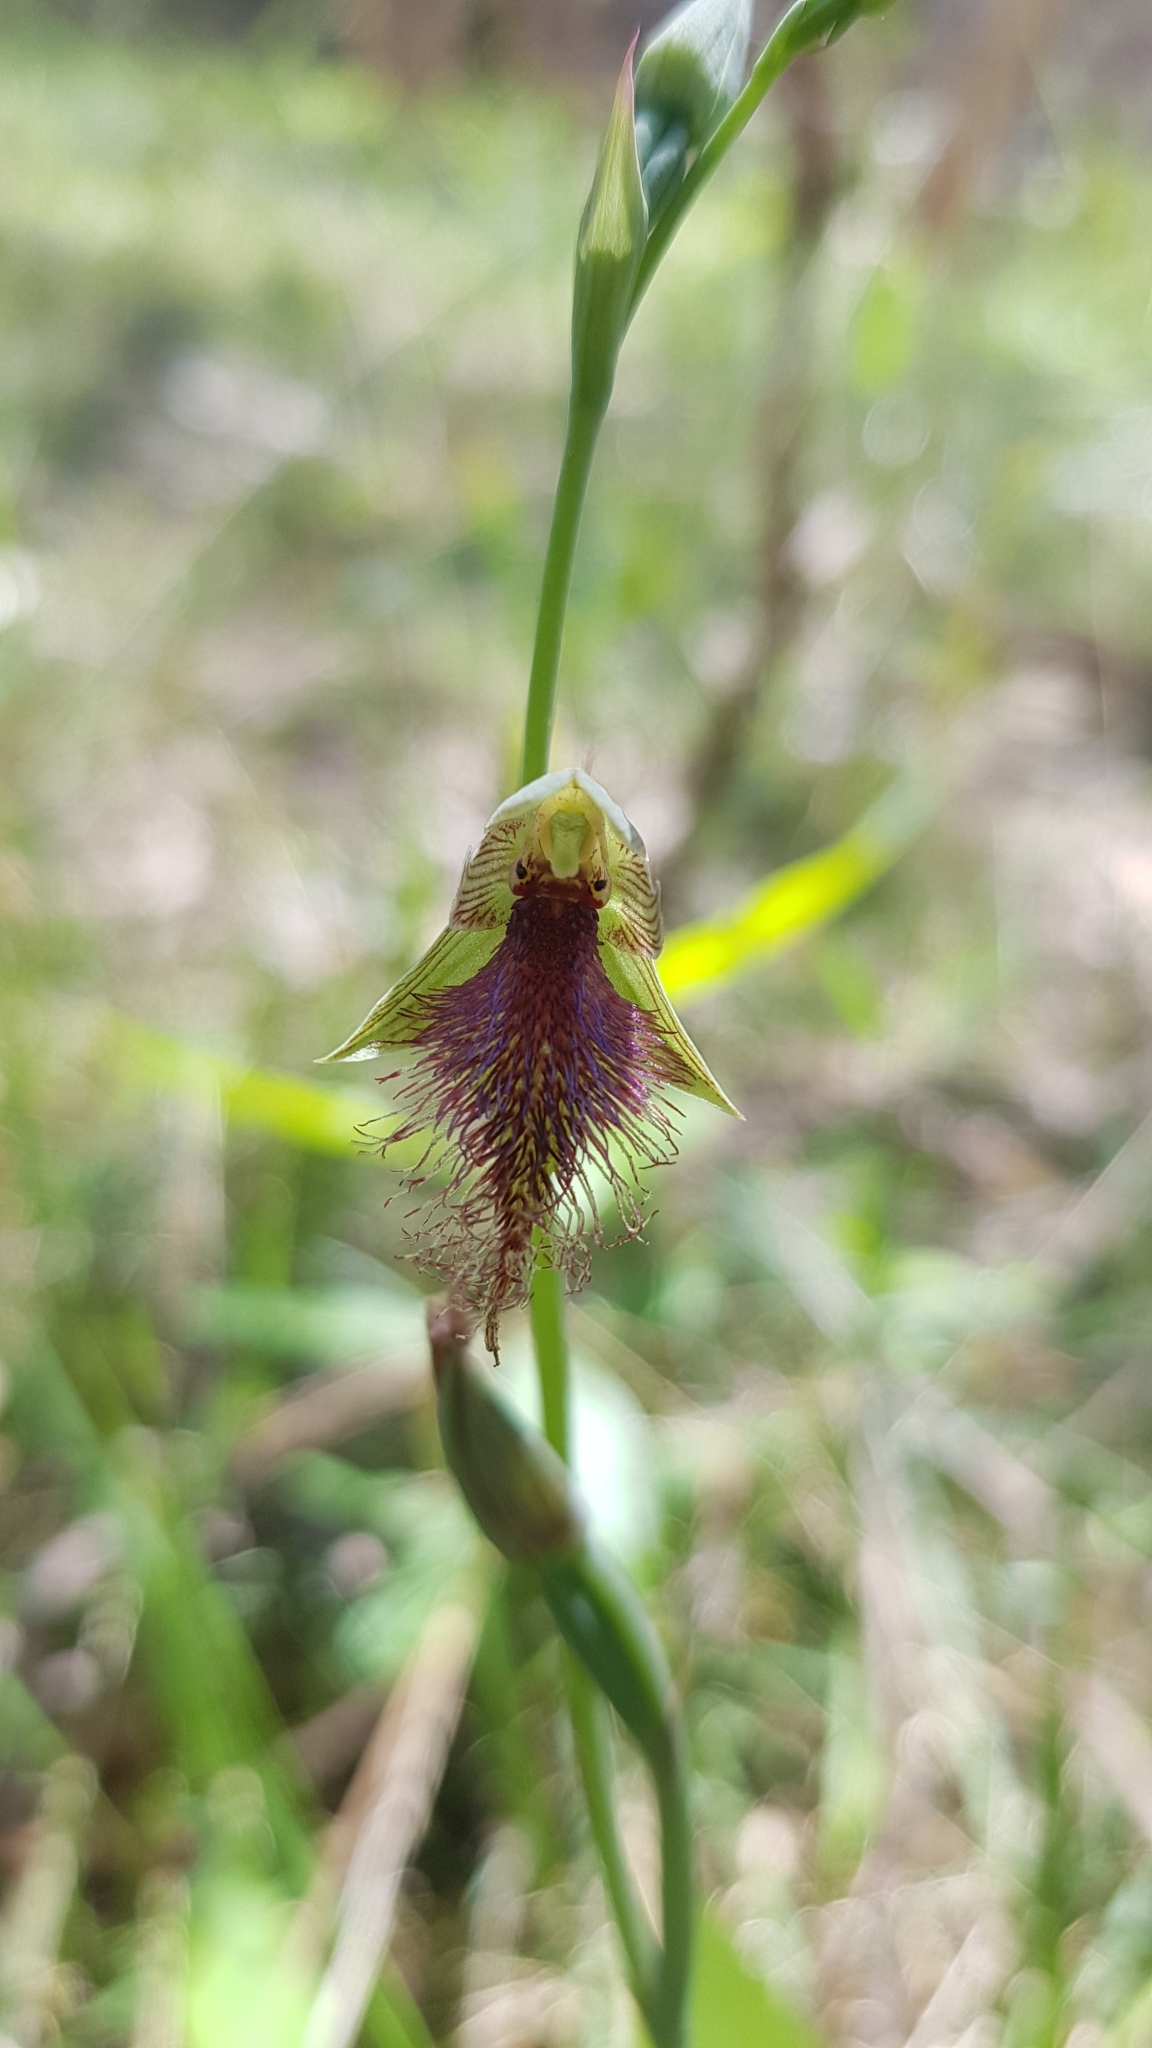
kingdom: Plantae
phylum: Tracheophyta
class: Liliopsida
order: Asparagales
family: Orchidaceae
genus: Calochilus
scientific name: Calochilus robertsonii
